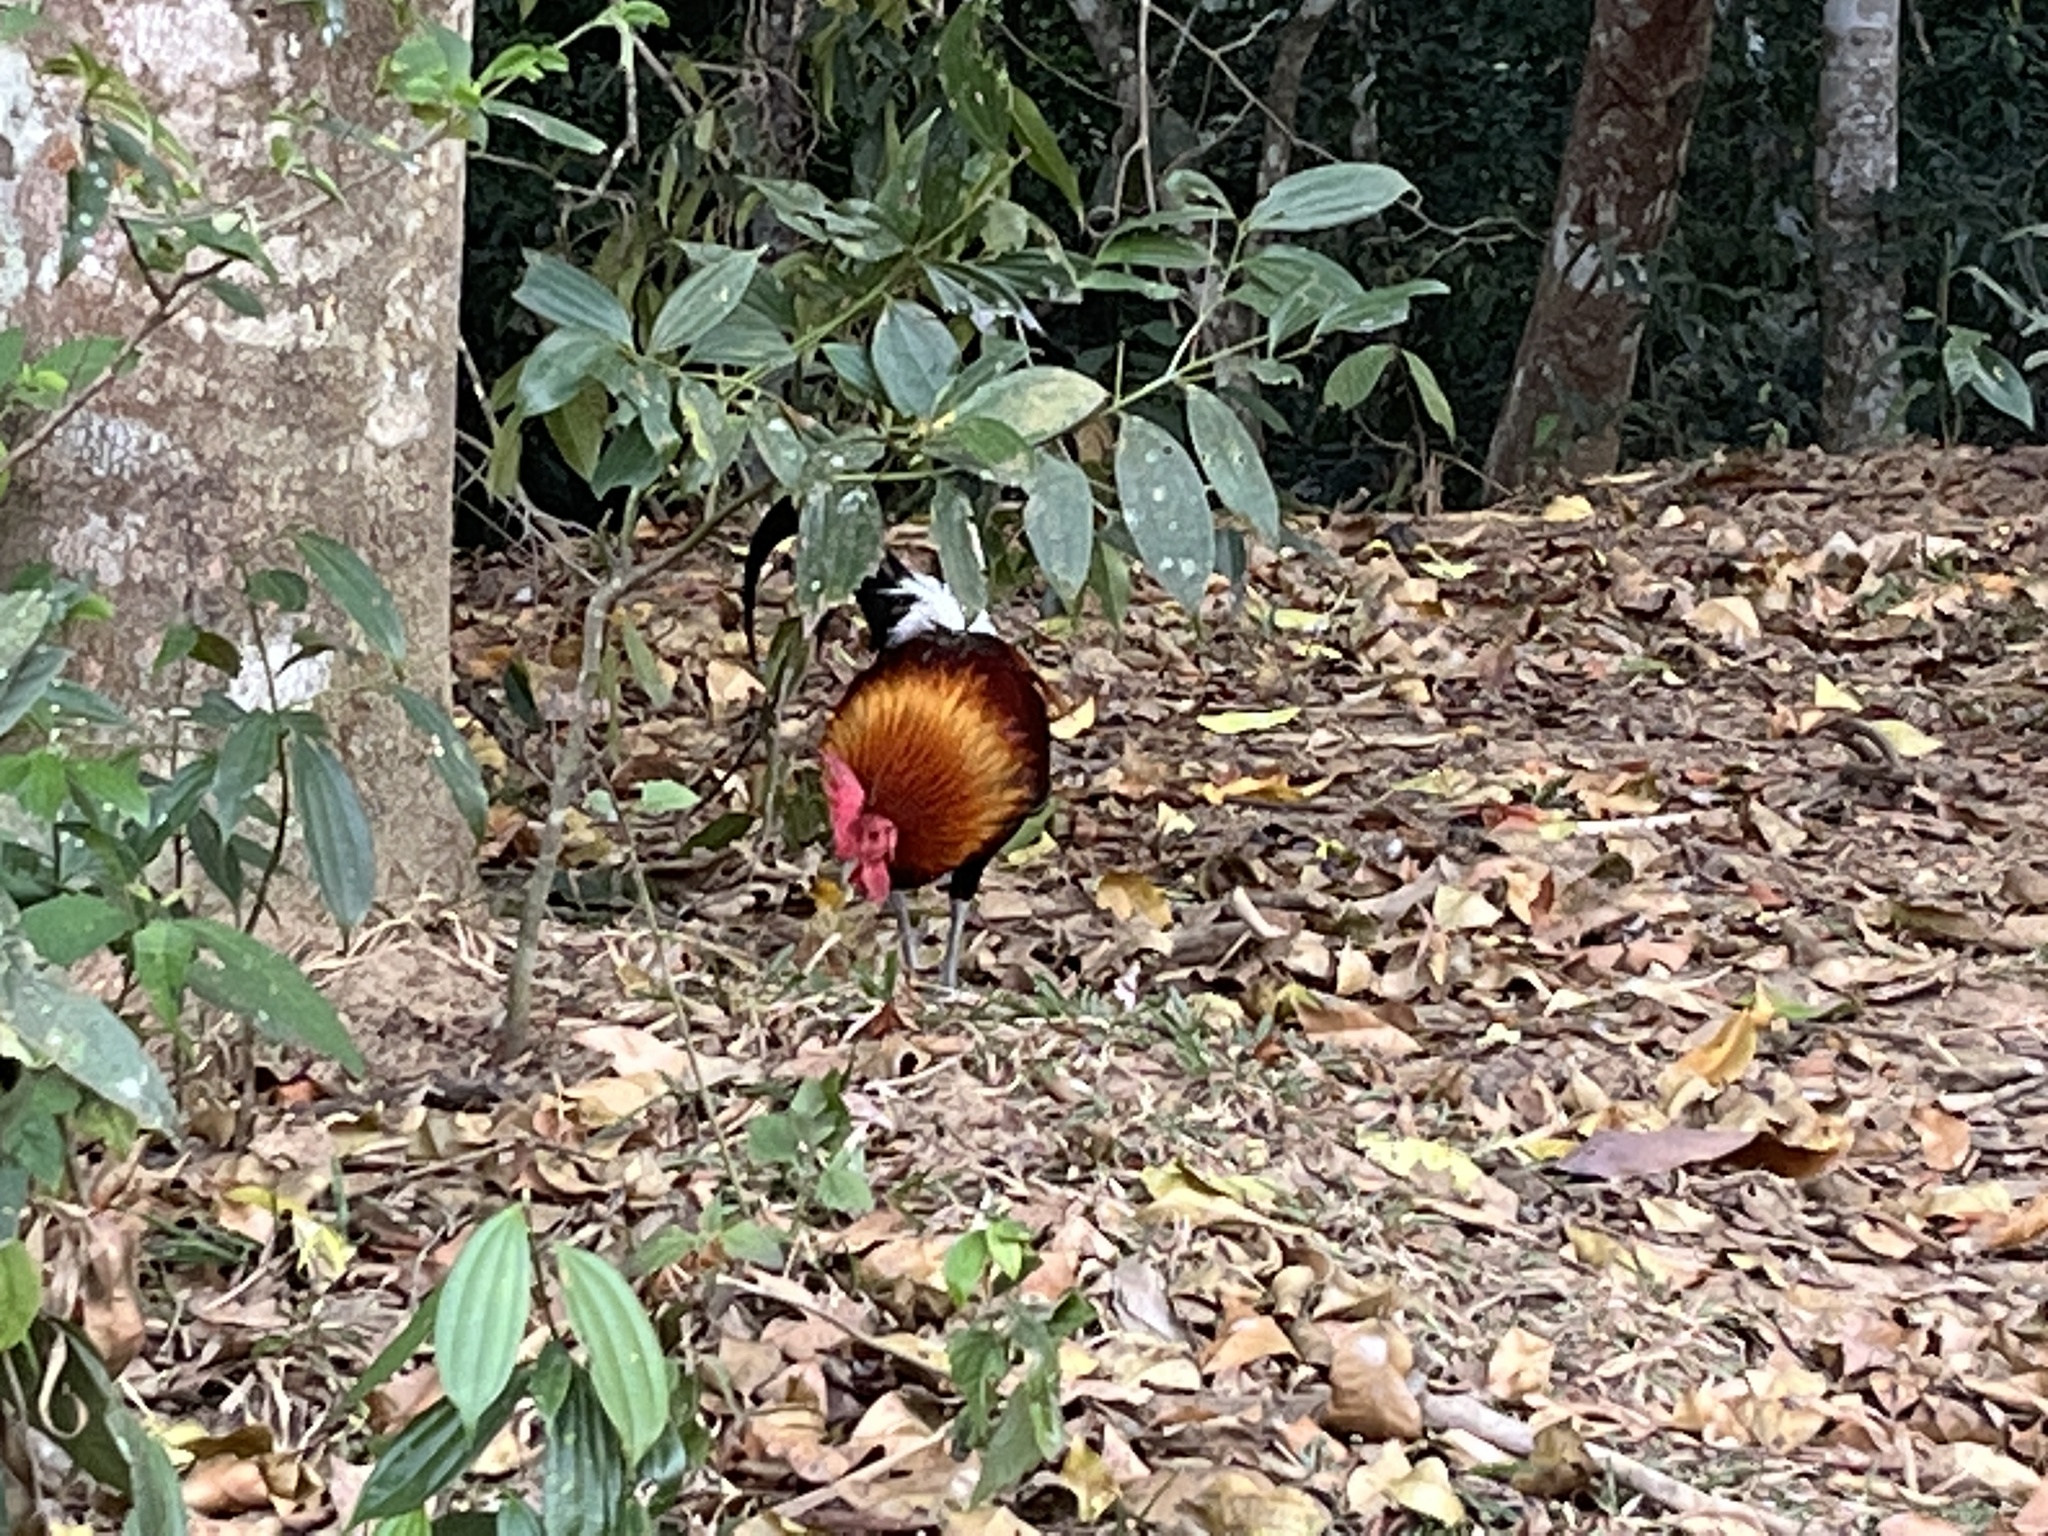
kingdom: Animalia
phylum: Chordata
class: Aves
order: Galliformes
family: Phasianidae
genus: Gallus
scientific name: Gallus gallus
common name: Red junglefowl
